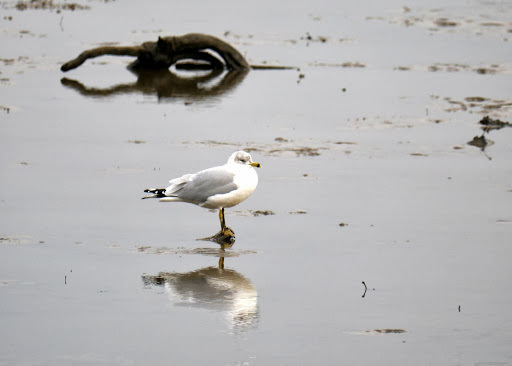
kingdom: Animalia
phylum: Chordata
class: Aves
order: Charadriiformes
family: Laridae
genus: Larus
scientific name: Larus delawarensis
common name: Ring-billed gull
